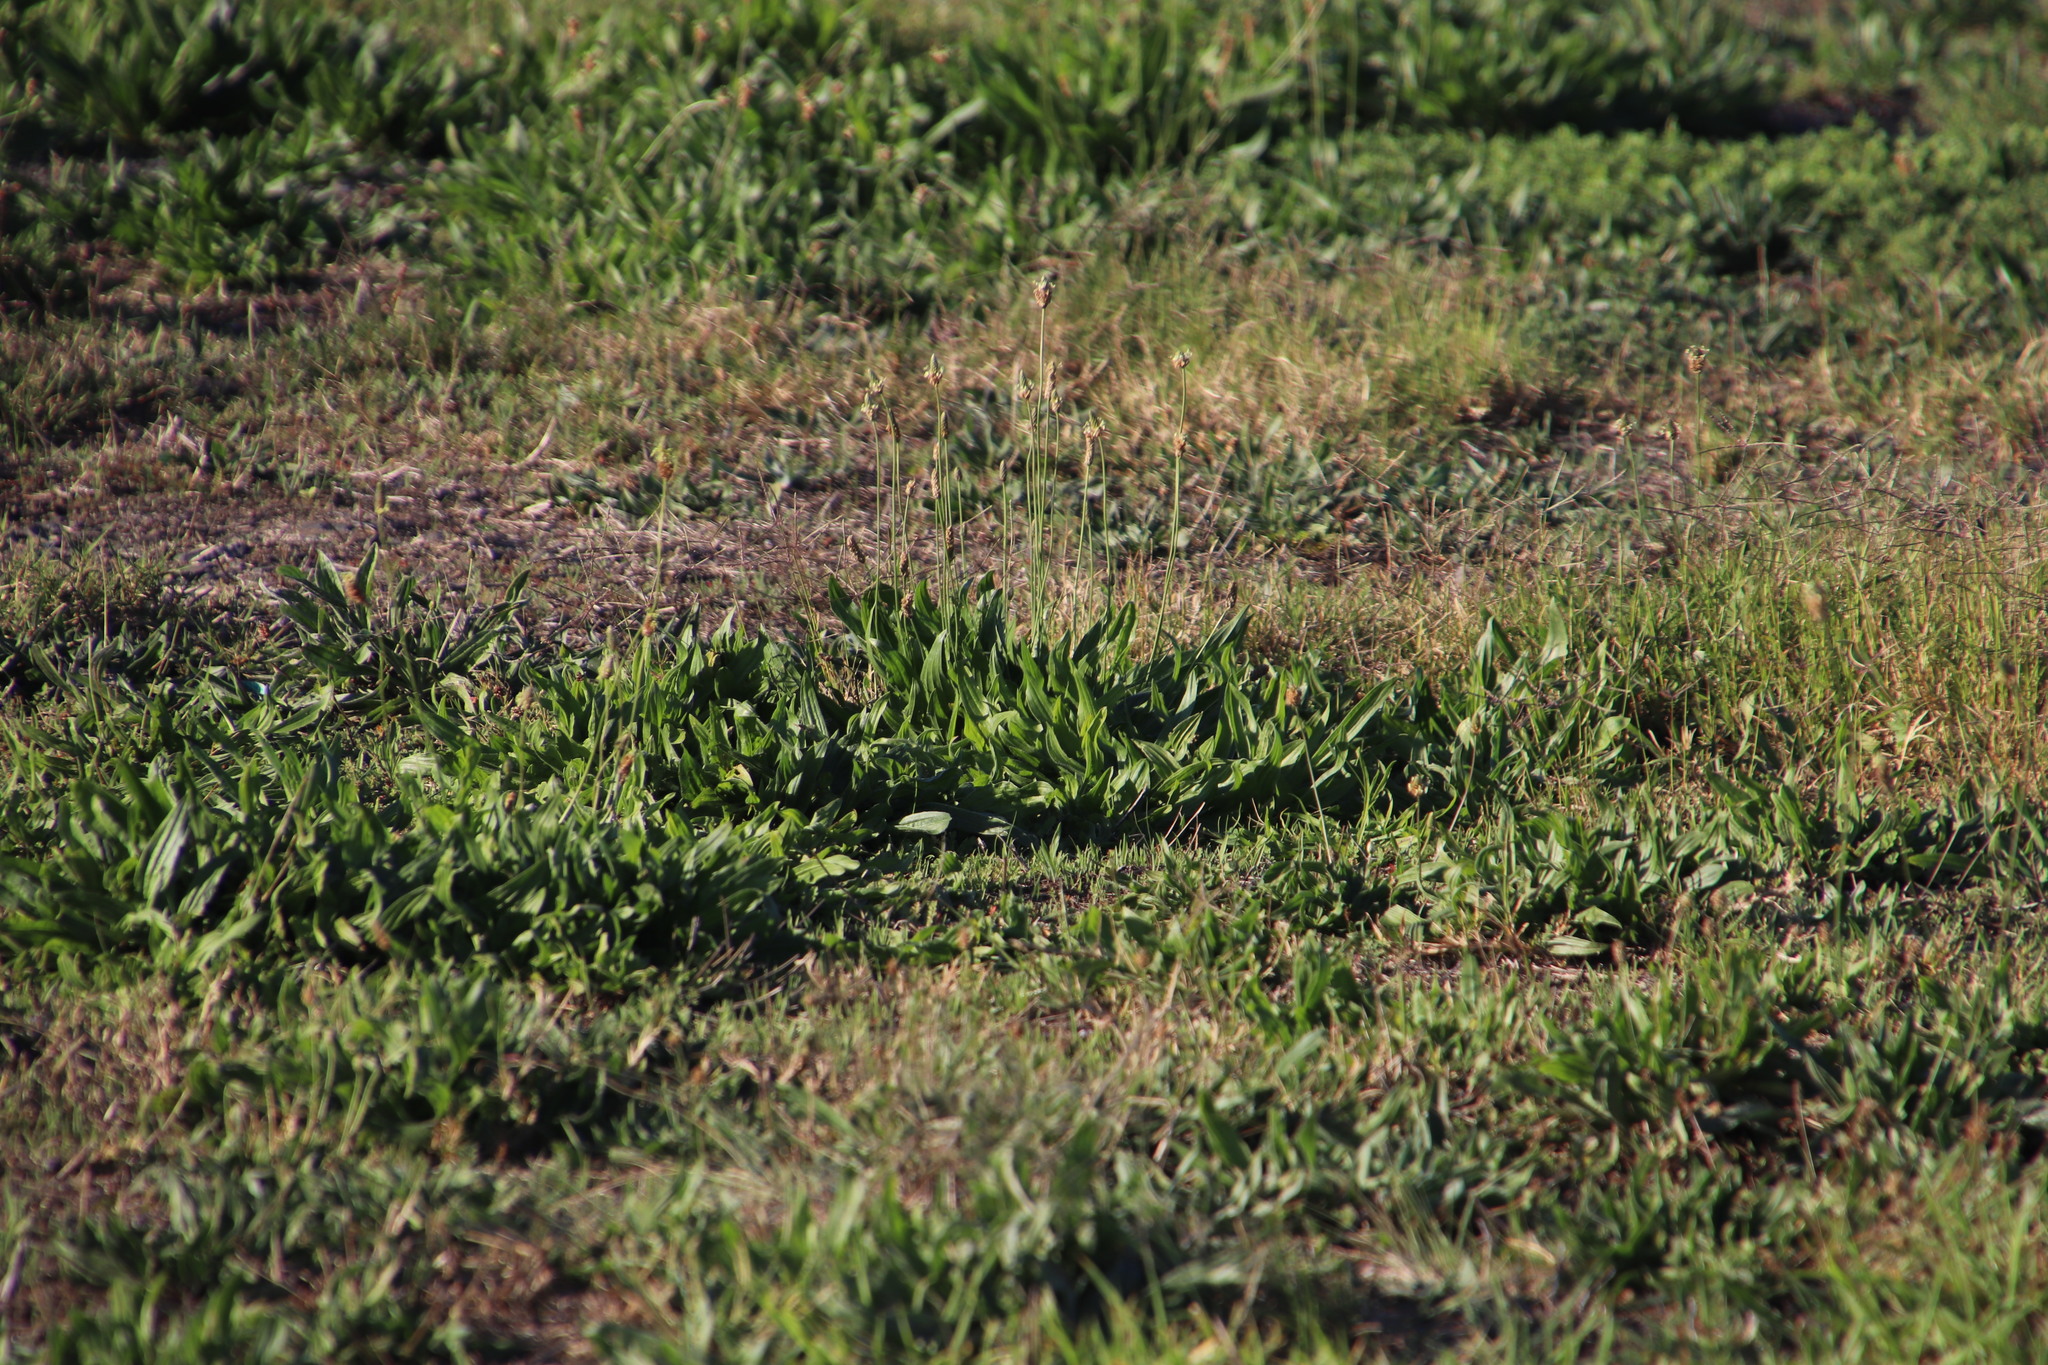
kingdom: Plantae
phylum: Tracheophyta
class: Magnoliopsida
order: Lamiales
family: Plantaginaceae
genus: Plantago
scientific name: Plantago lanceolata
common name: Ribwort plantain
